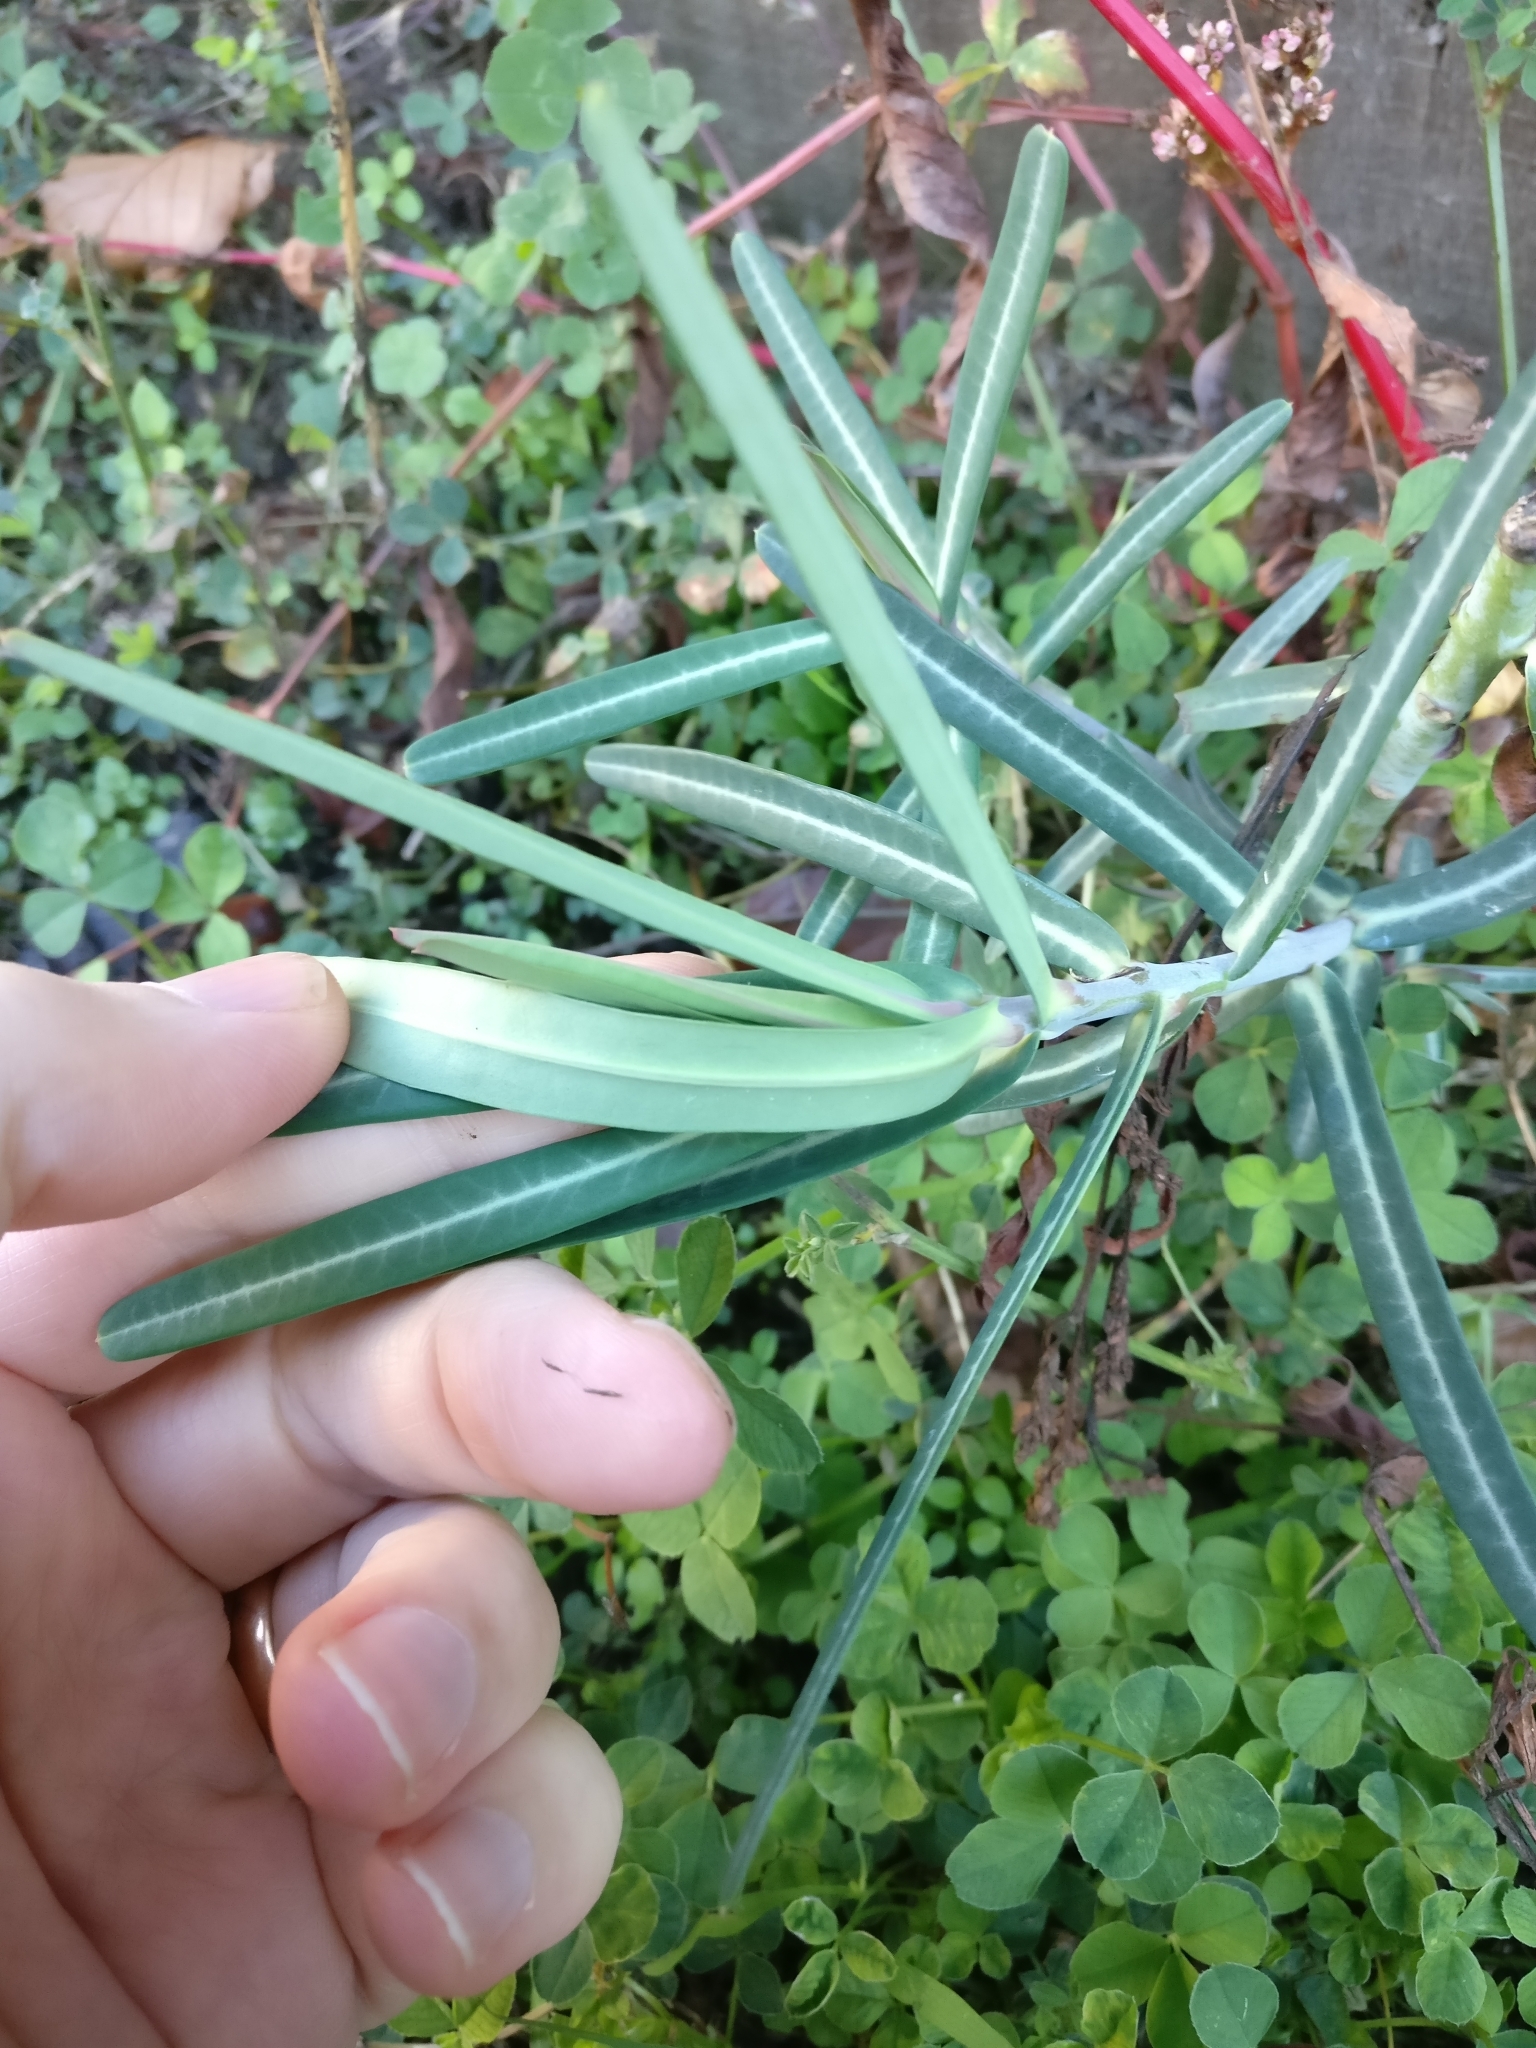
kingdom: Plantae
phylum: Tracheophyta
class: Magnoliopsida
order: Malpighiales
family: Euphorbiaceae
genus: Euphorbia
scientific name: Euphorbia lathyris
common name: Caper spurge
